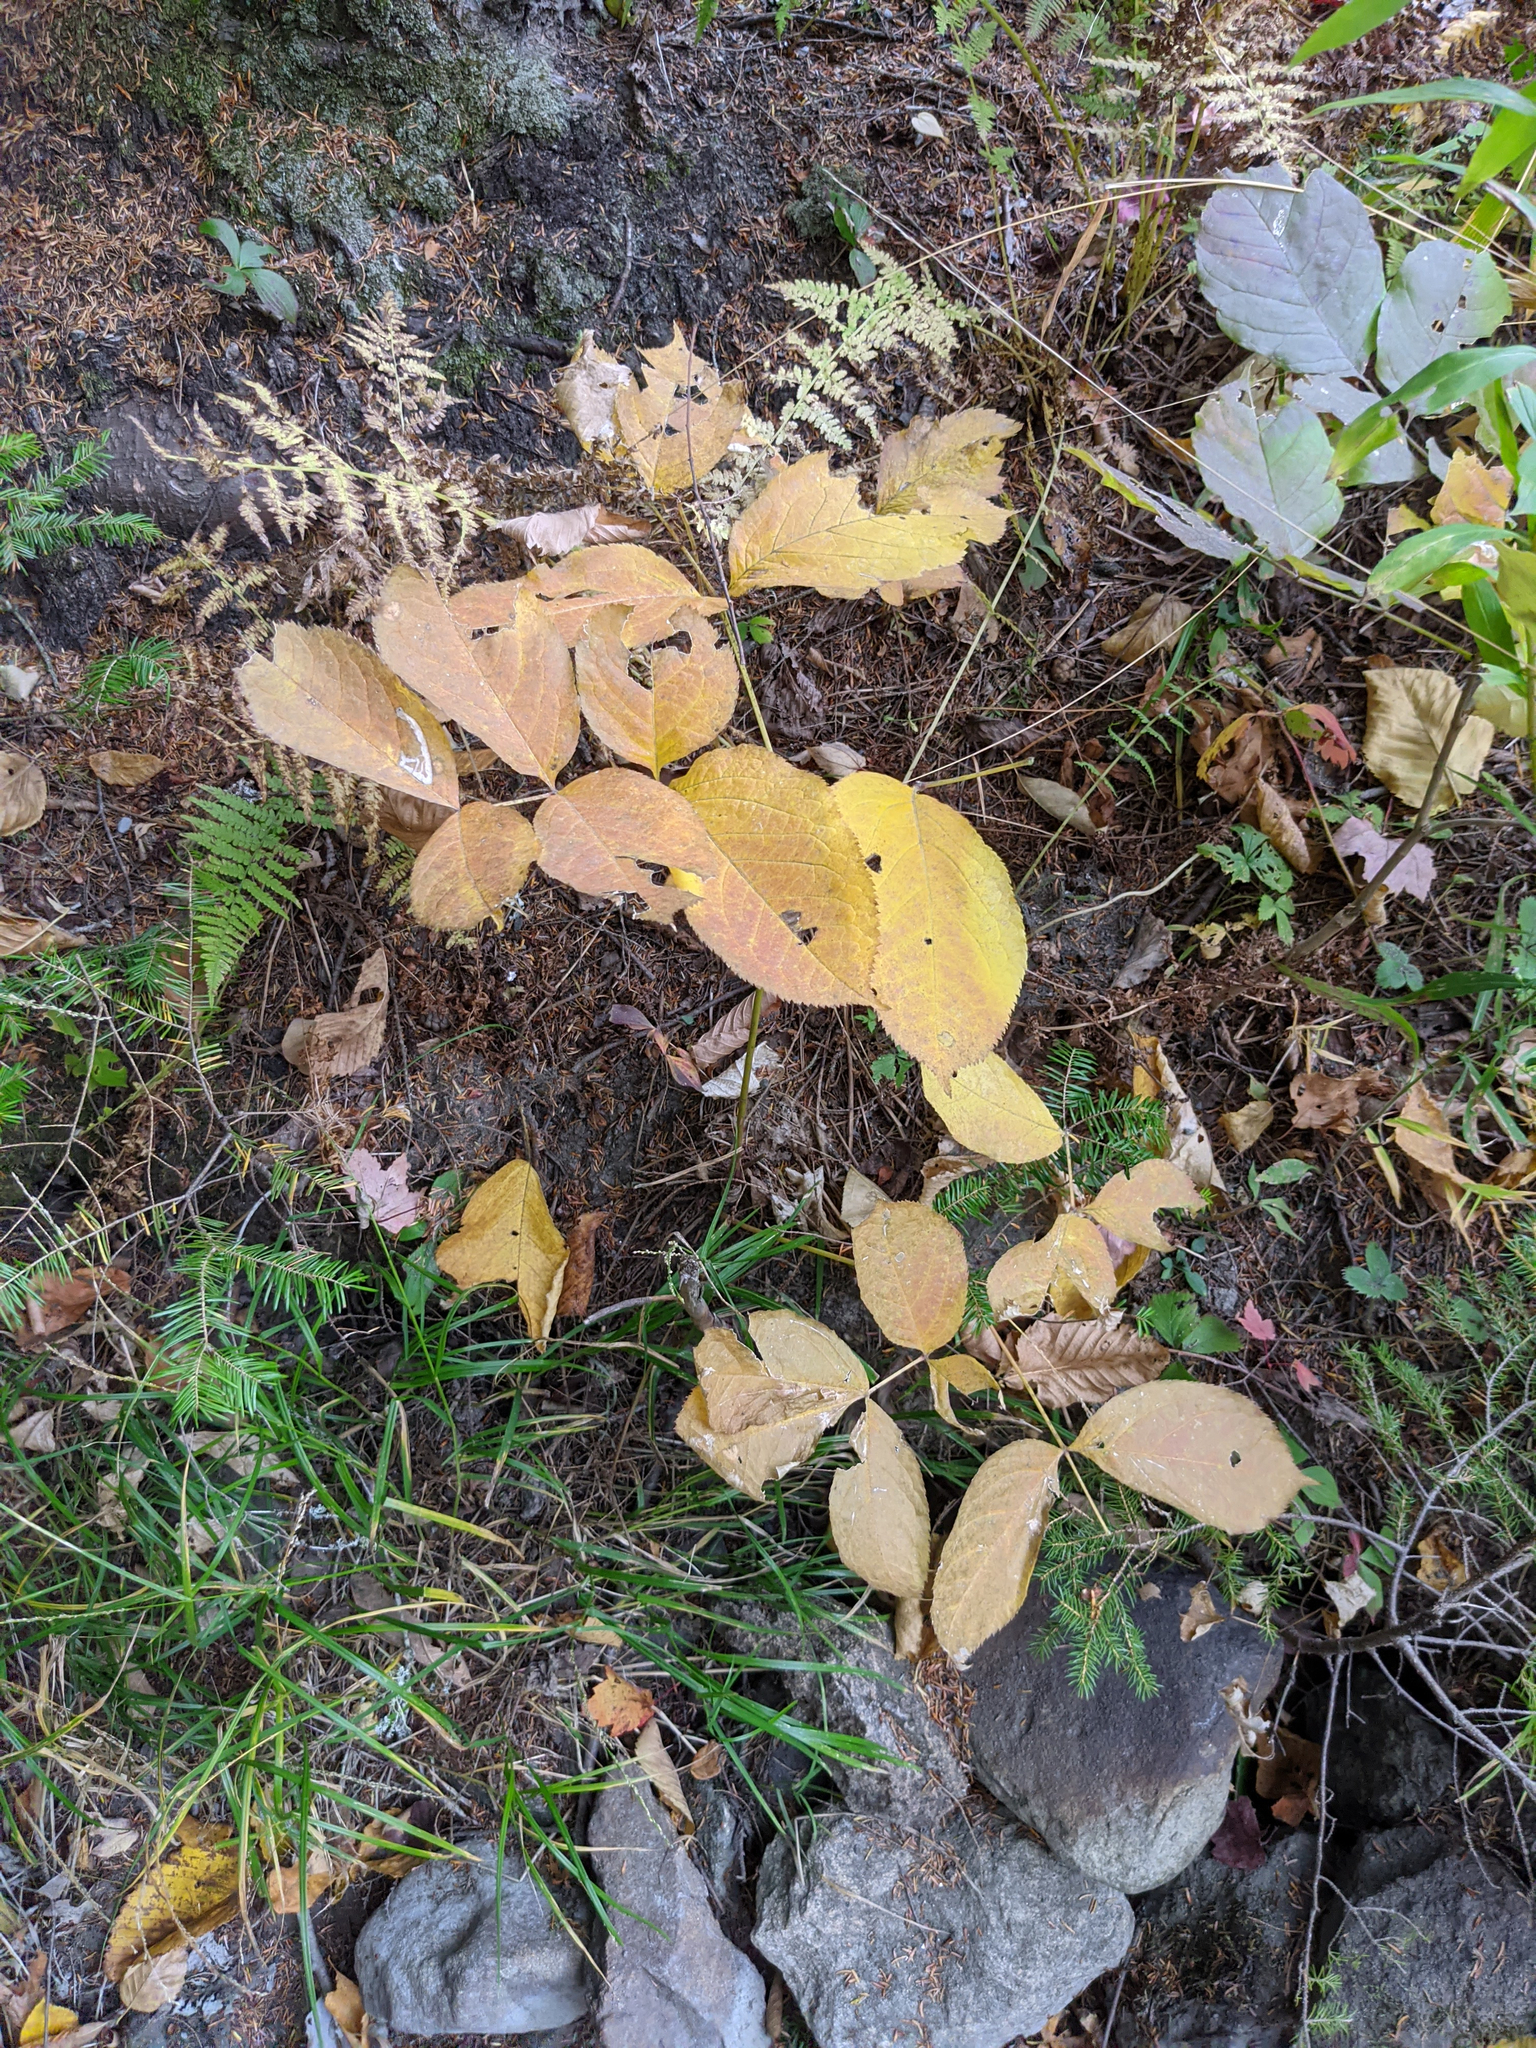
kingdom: Plantae
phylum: Tracheophyta
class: Magnoliopsida
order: Apiales
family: Araliaceae
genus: Aralia
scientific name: Aralia nudicaulis
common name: Wild sarsaparilla
